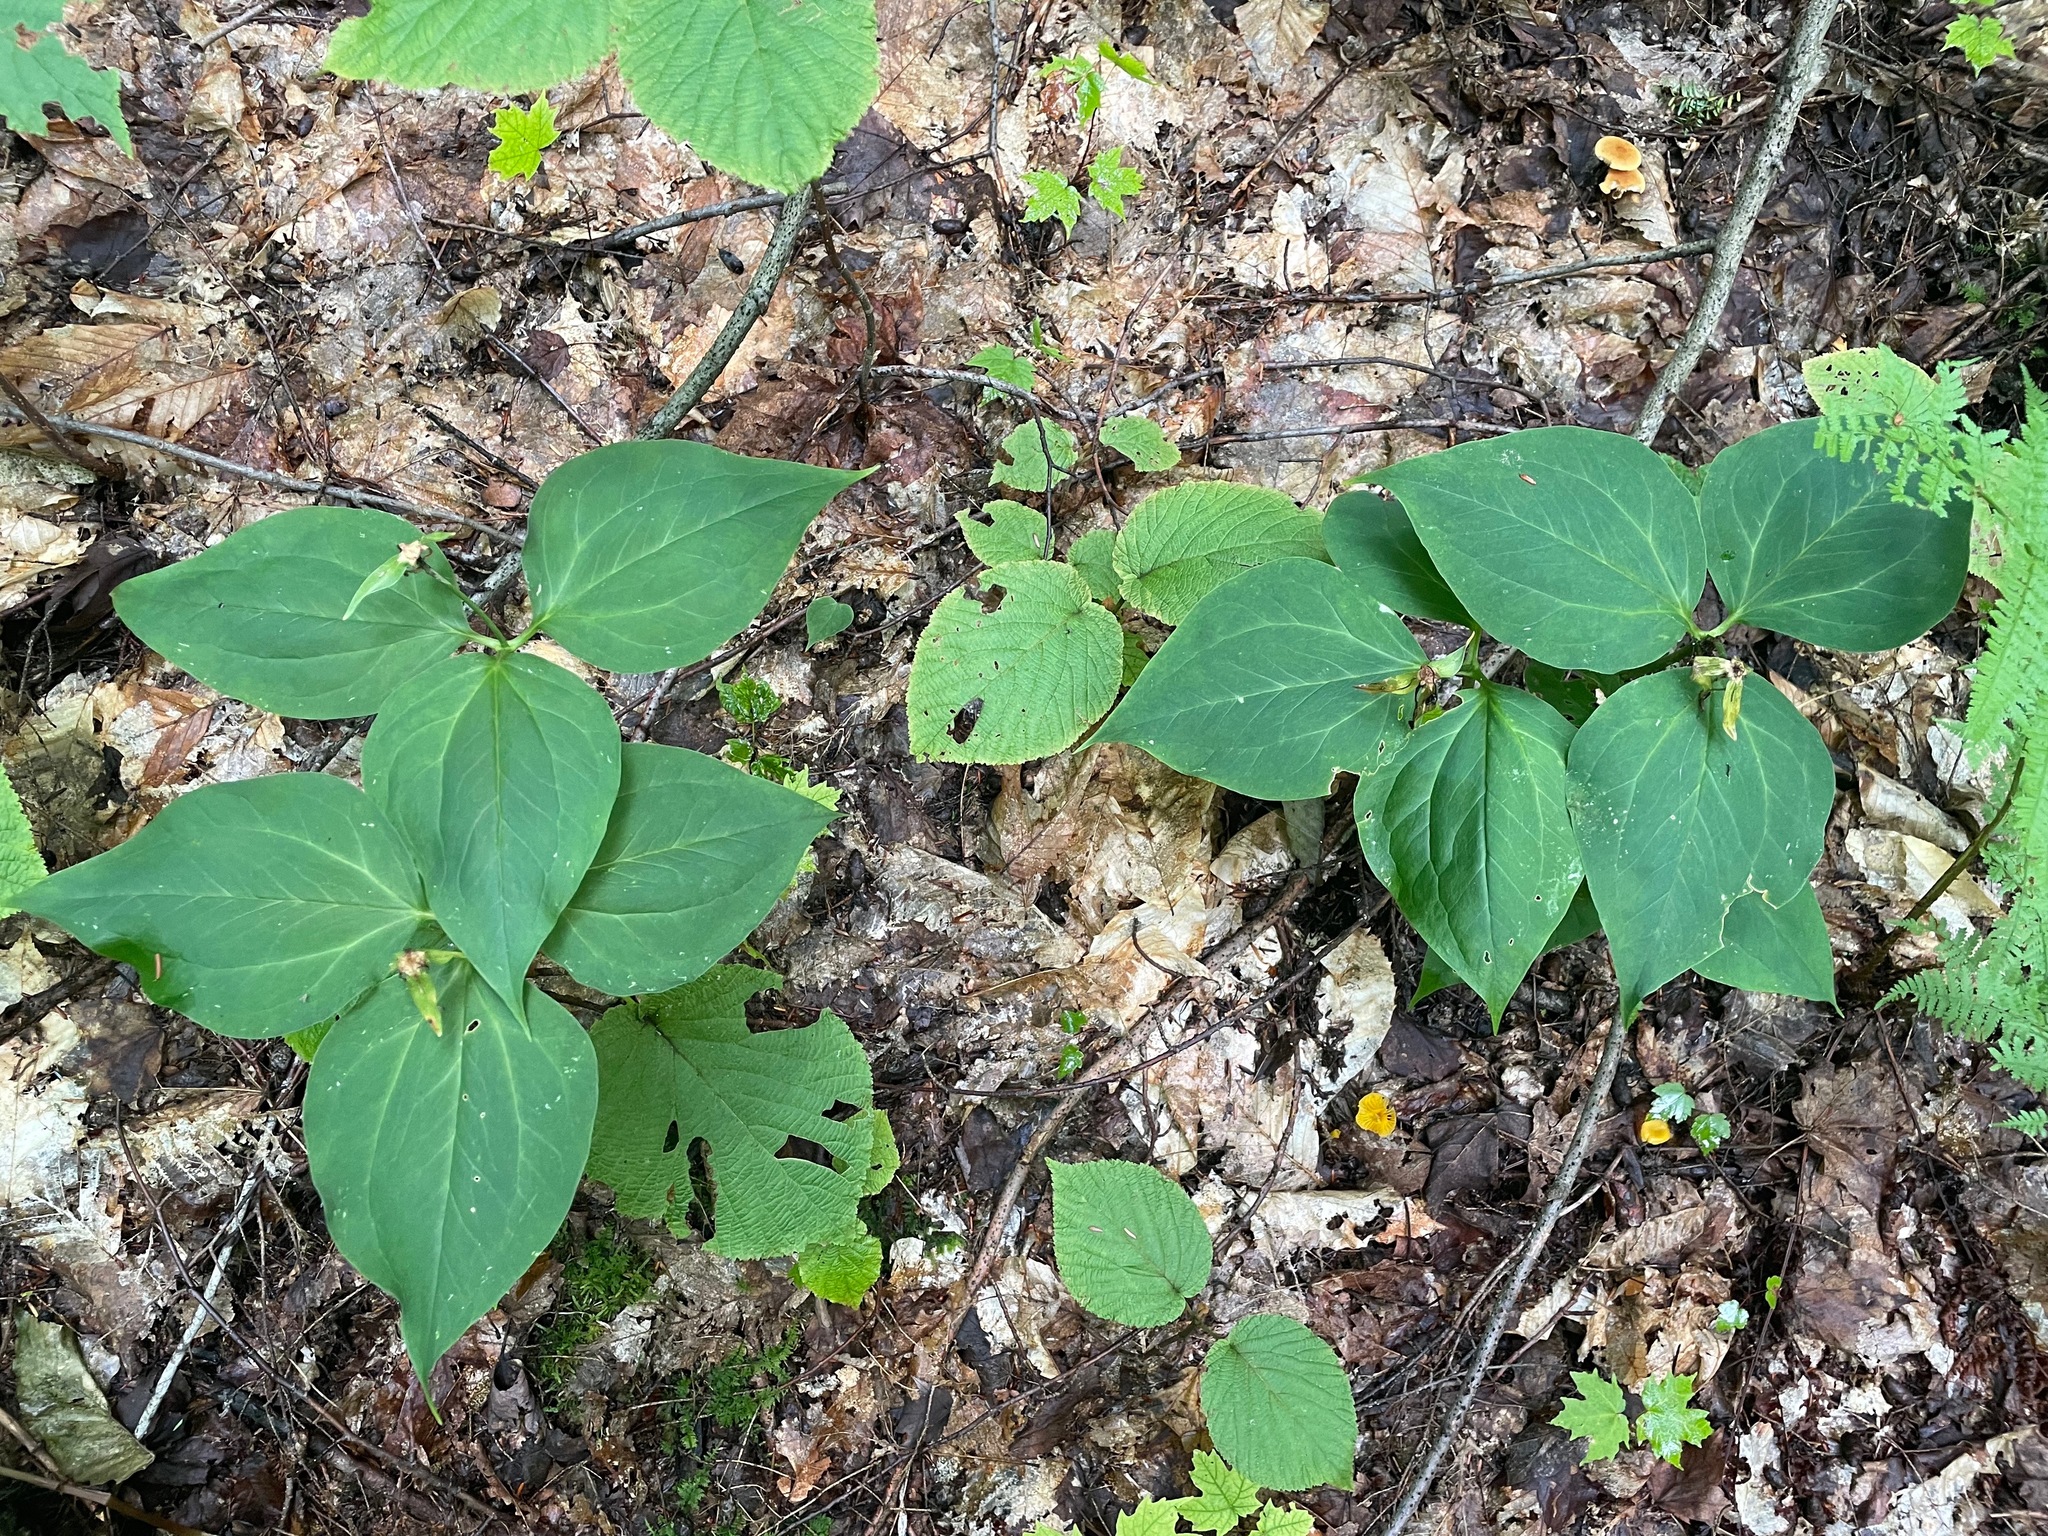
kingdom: Plantae
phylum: Tracheophyta
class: Liliopsida
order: Liliales
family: Melanthiaceae
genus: Trillium
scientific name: Trillium undulatum
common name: Paint trillium
